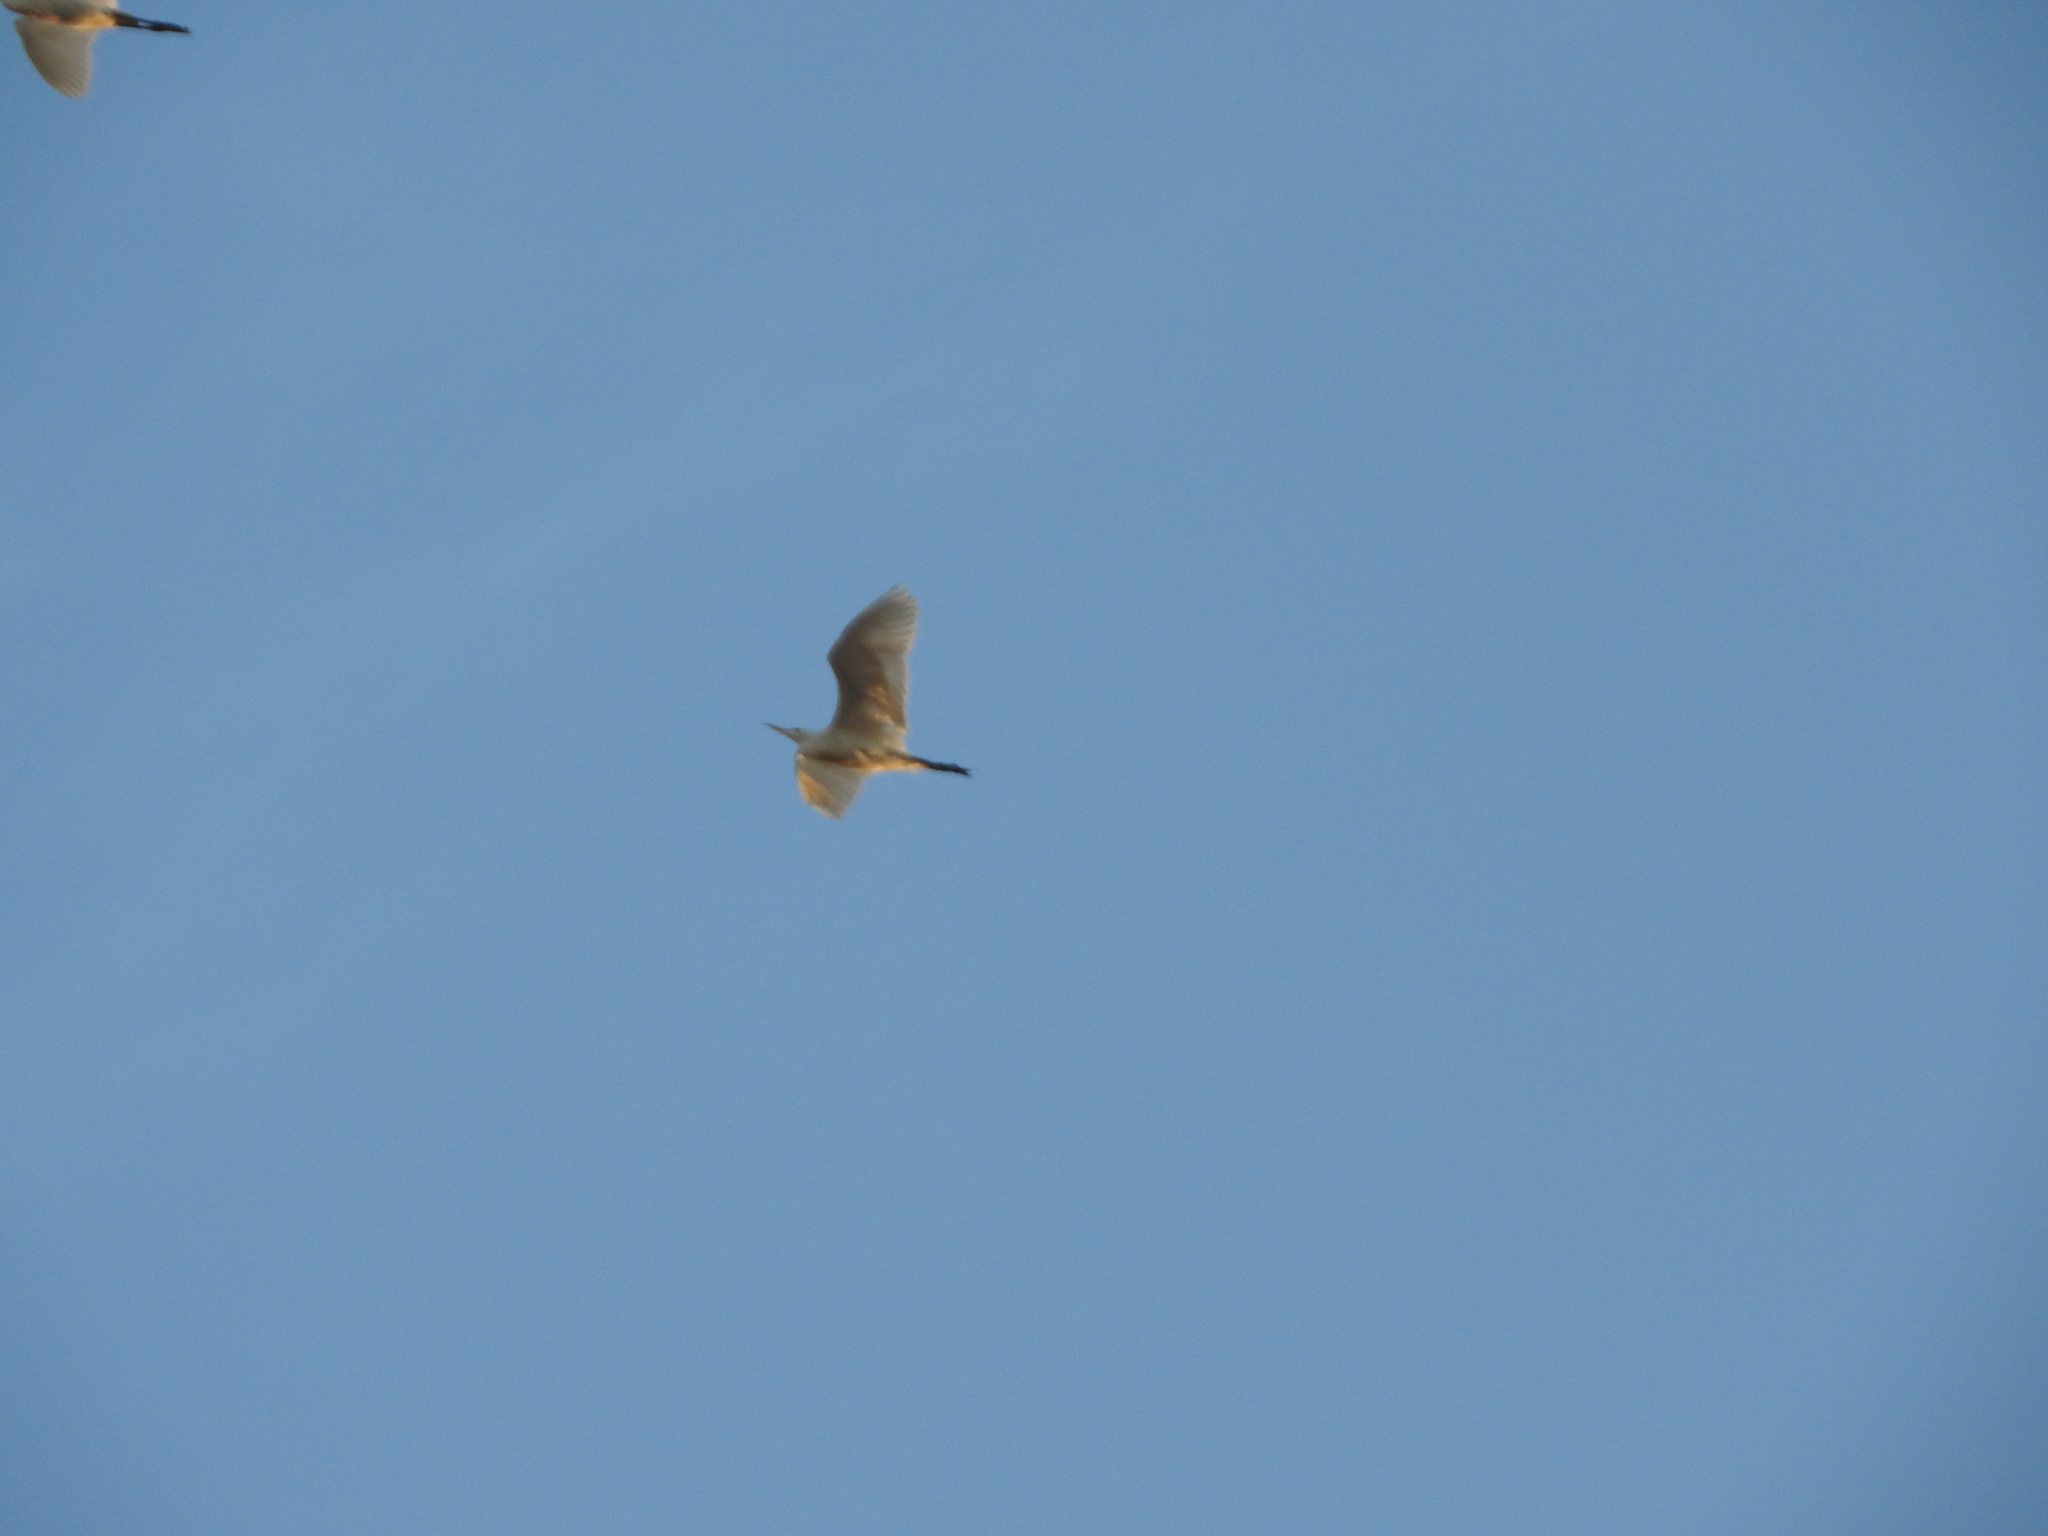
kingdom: Animalia
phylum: Chordata
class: Aves
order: Pelecaniformes
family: Ardeidae
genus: Bubulcus
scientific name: Bubulcus ibis
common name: Cattle egret
